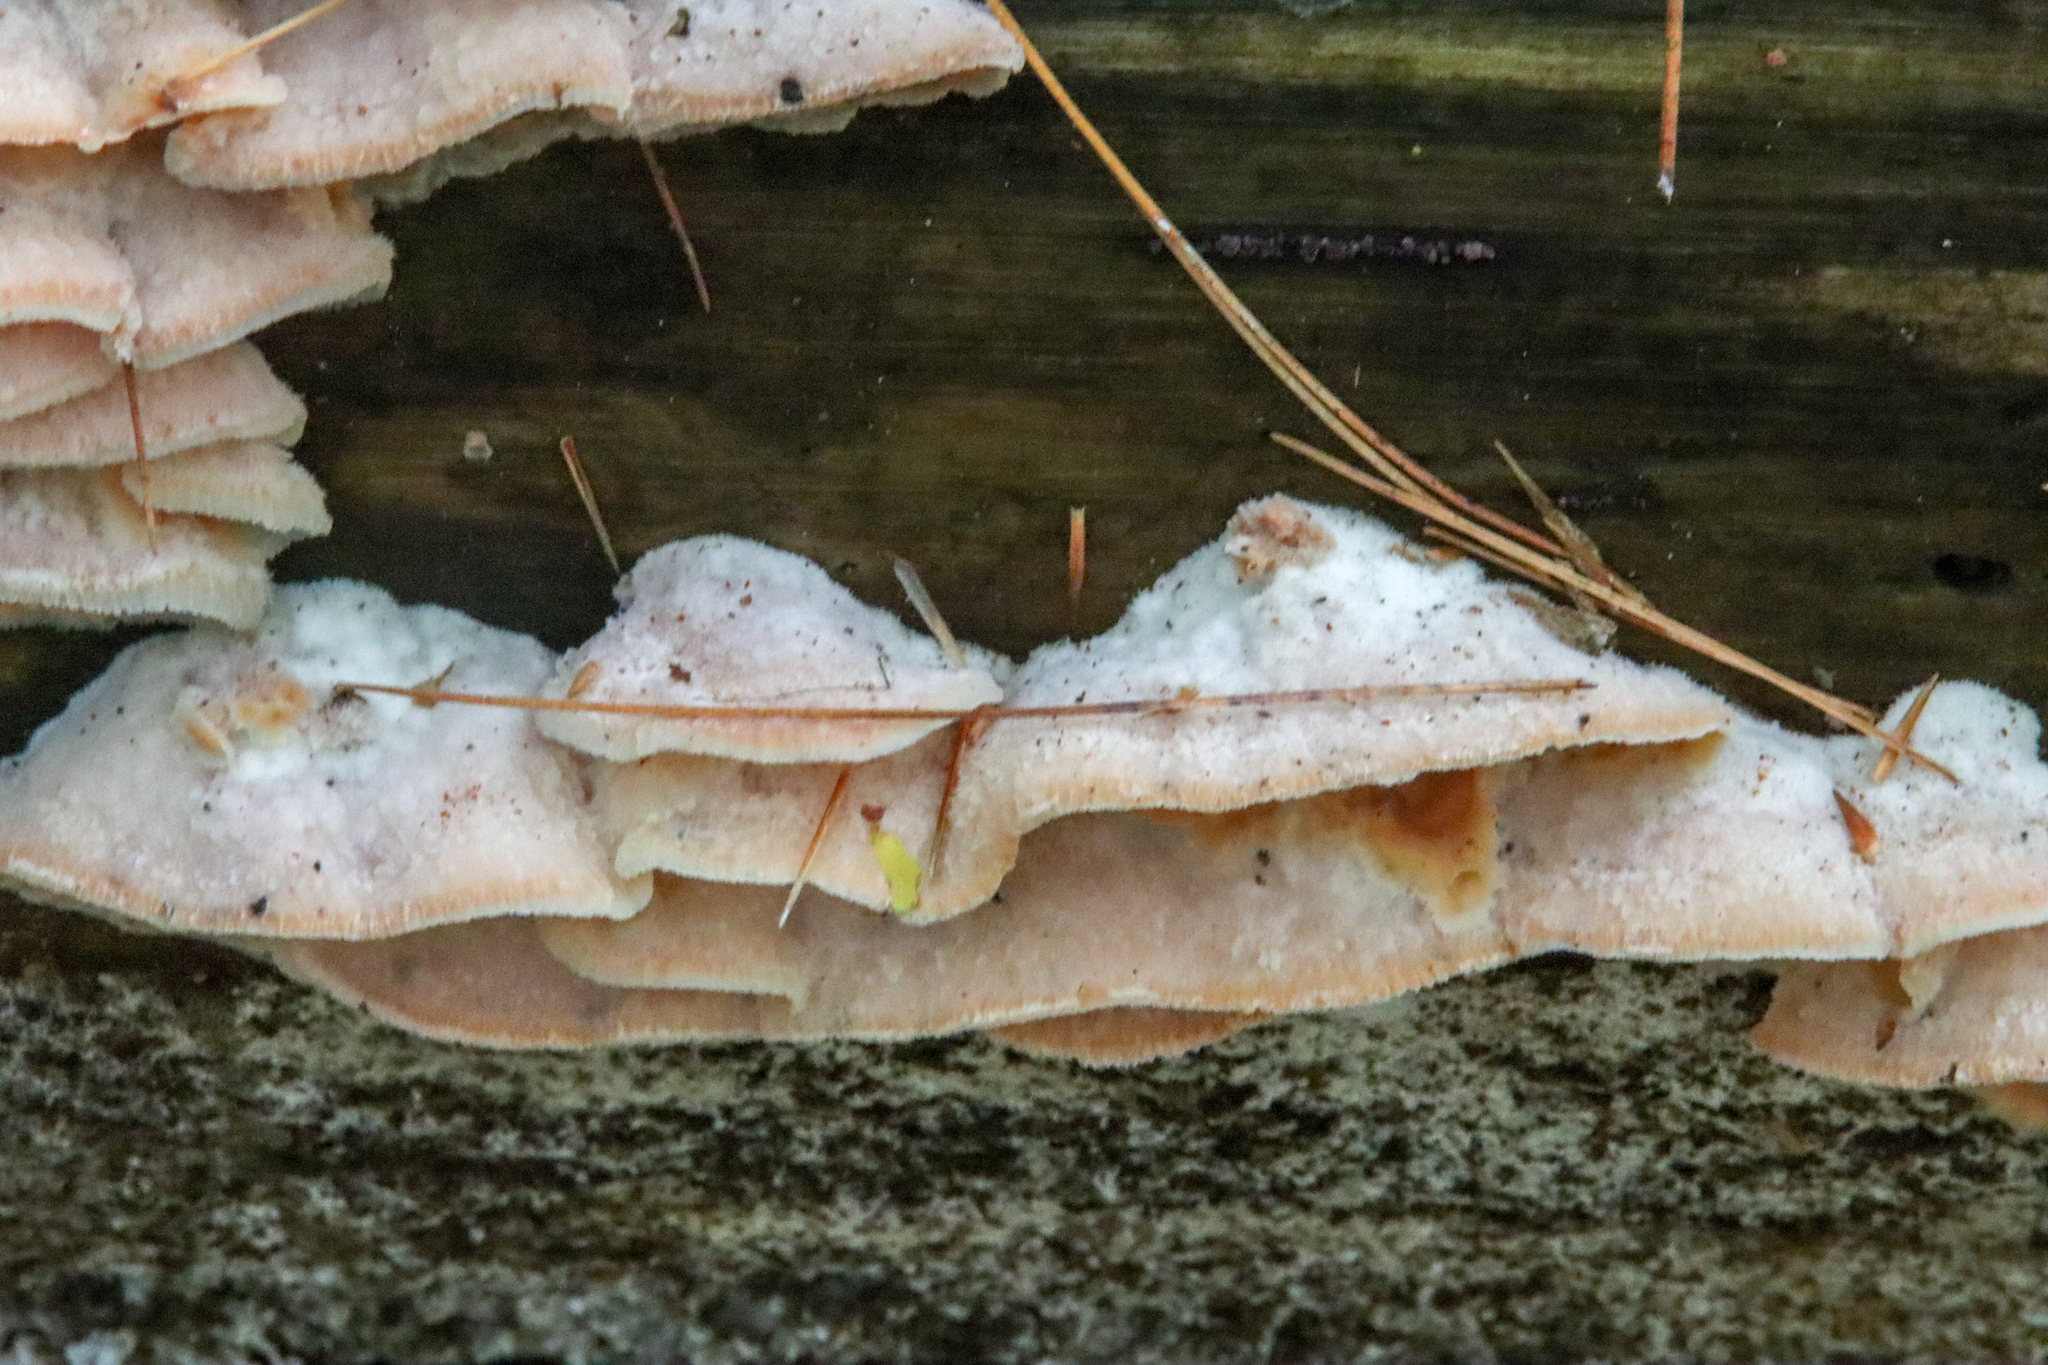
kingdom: Fungi
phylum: Basidiomycota
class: Agaricomycetes
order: Polyporales
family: Meruliaceae
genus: Phlebia
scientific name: Phlebia tremellosa
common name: Jelly rot
